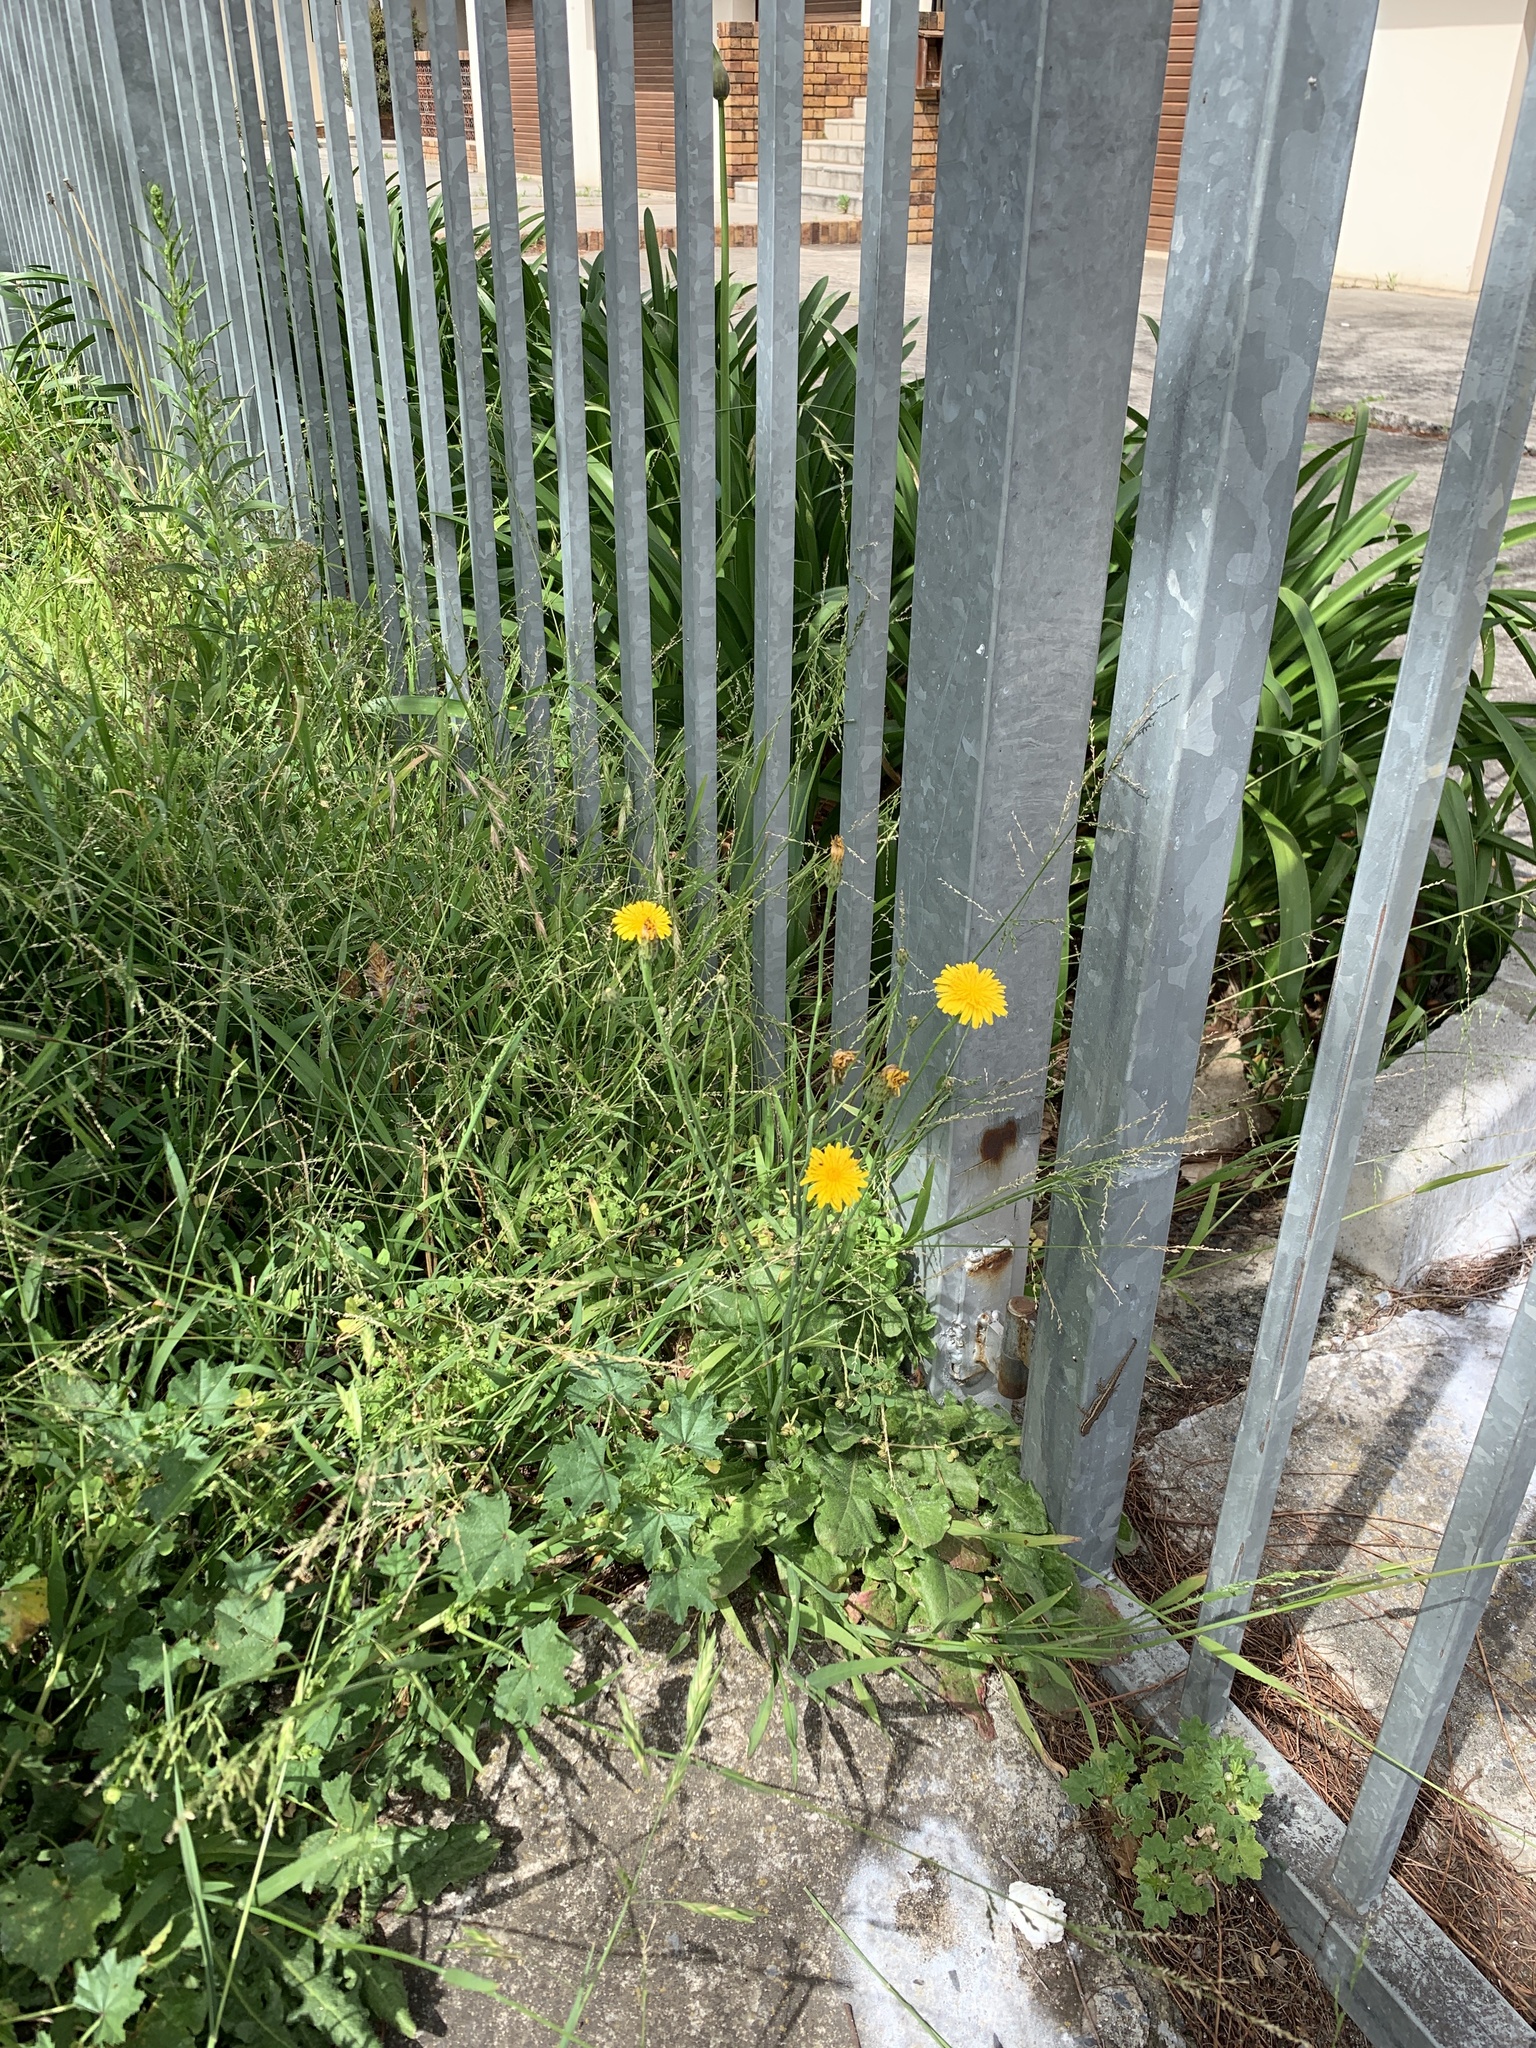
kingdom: Plantae
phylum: Tracheophyta
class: Magnoliopsida
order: Asterales
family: Asteraceae
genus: Hypochaeris
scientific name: Hypochaeris radicata
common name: Flatweed
